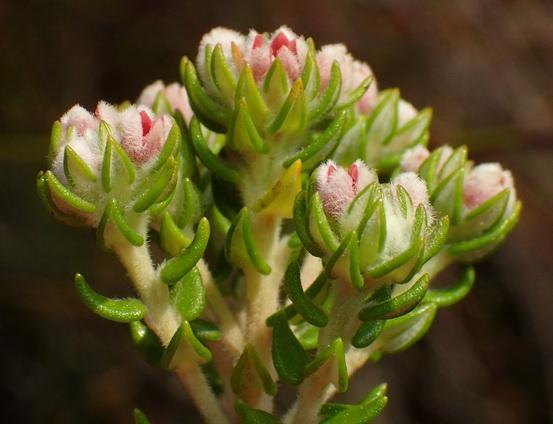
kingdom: Plantae
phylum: Tracheophyta
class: Magnoliopsida
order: Rosales
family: Rhamnaceae
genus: Phylica
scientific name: Phylica purpurea
